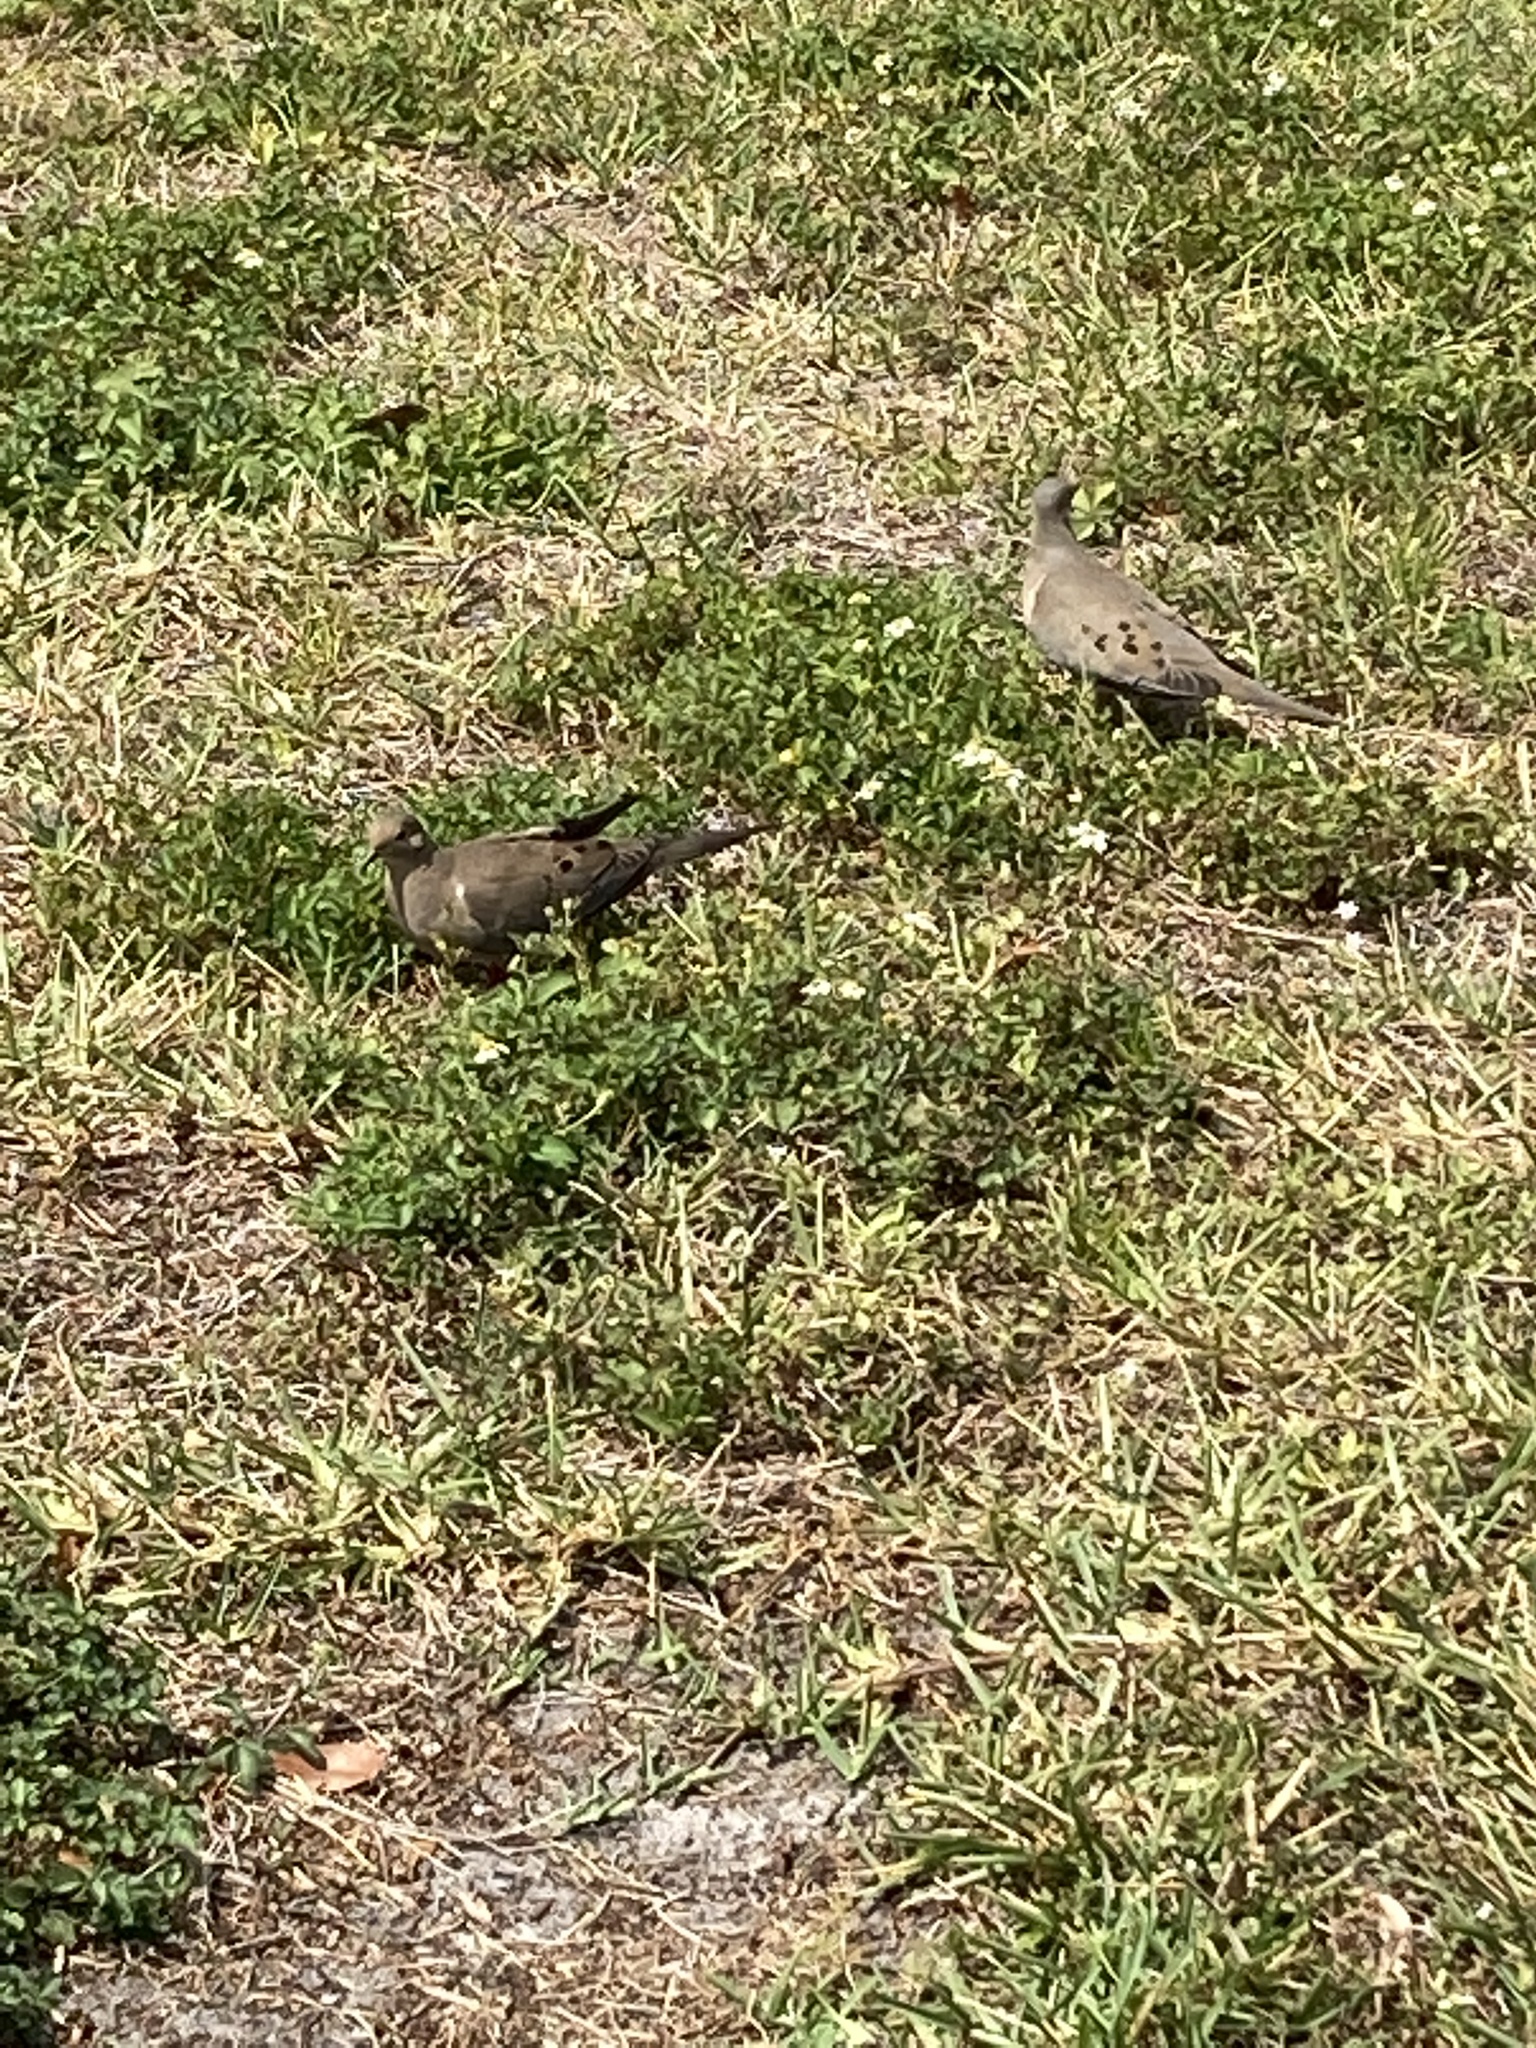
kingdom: Animalia
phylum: Chordata
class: Aves
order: Columbiformes
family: Columbidae
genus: Zenaida
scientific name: Zenaida macroura
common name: Mourning dove
